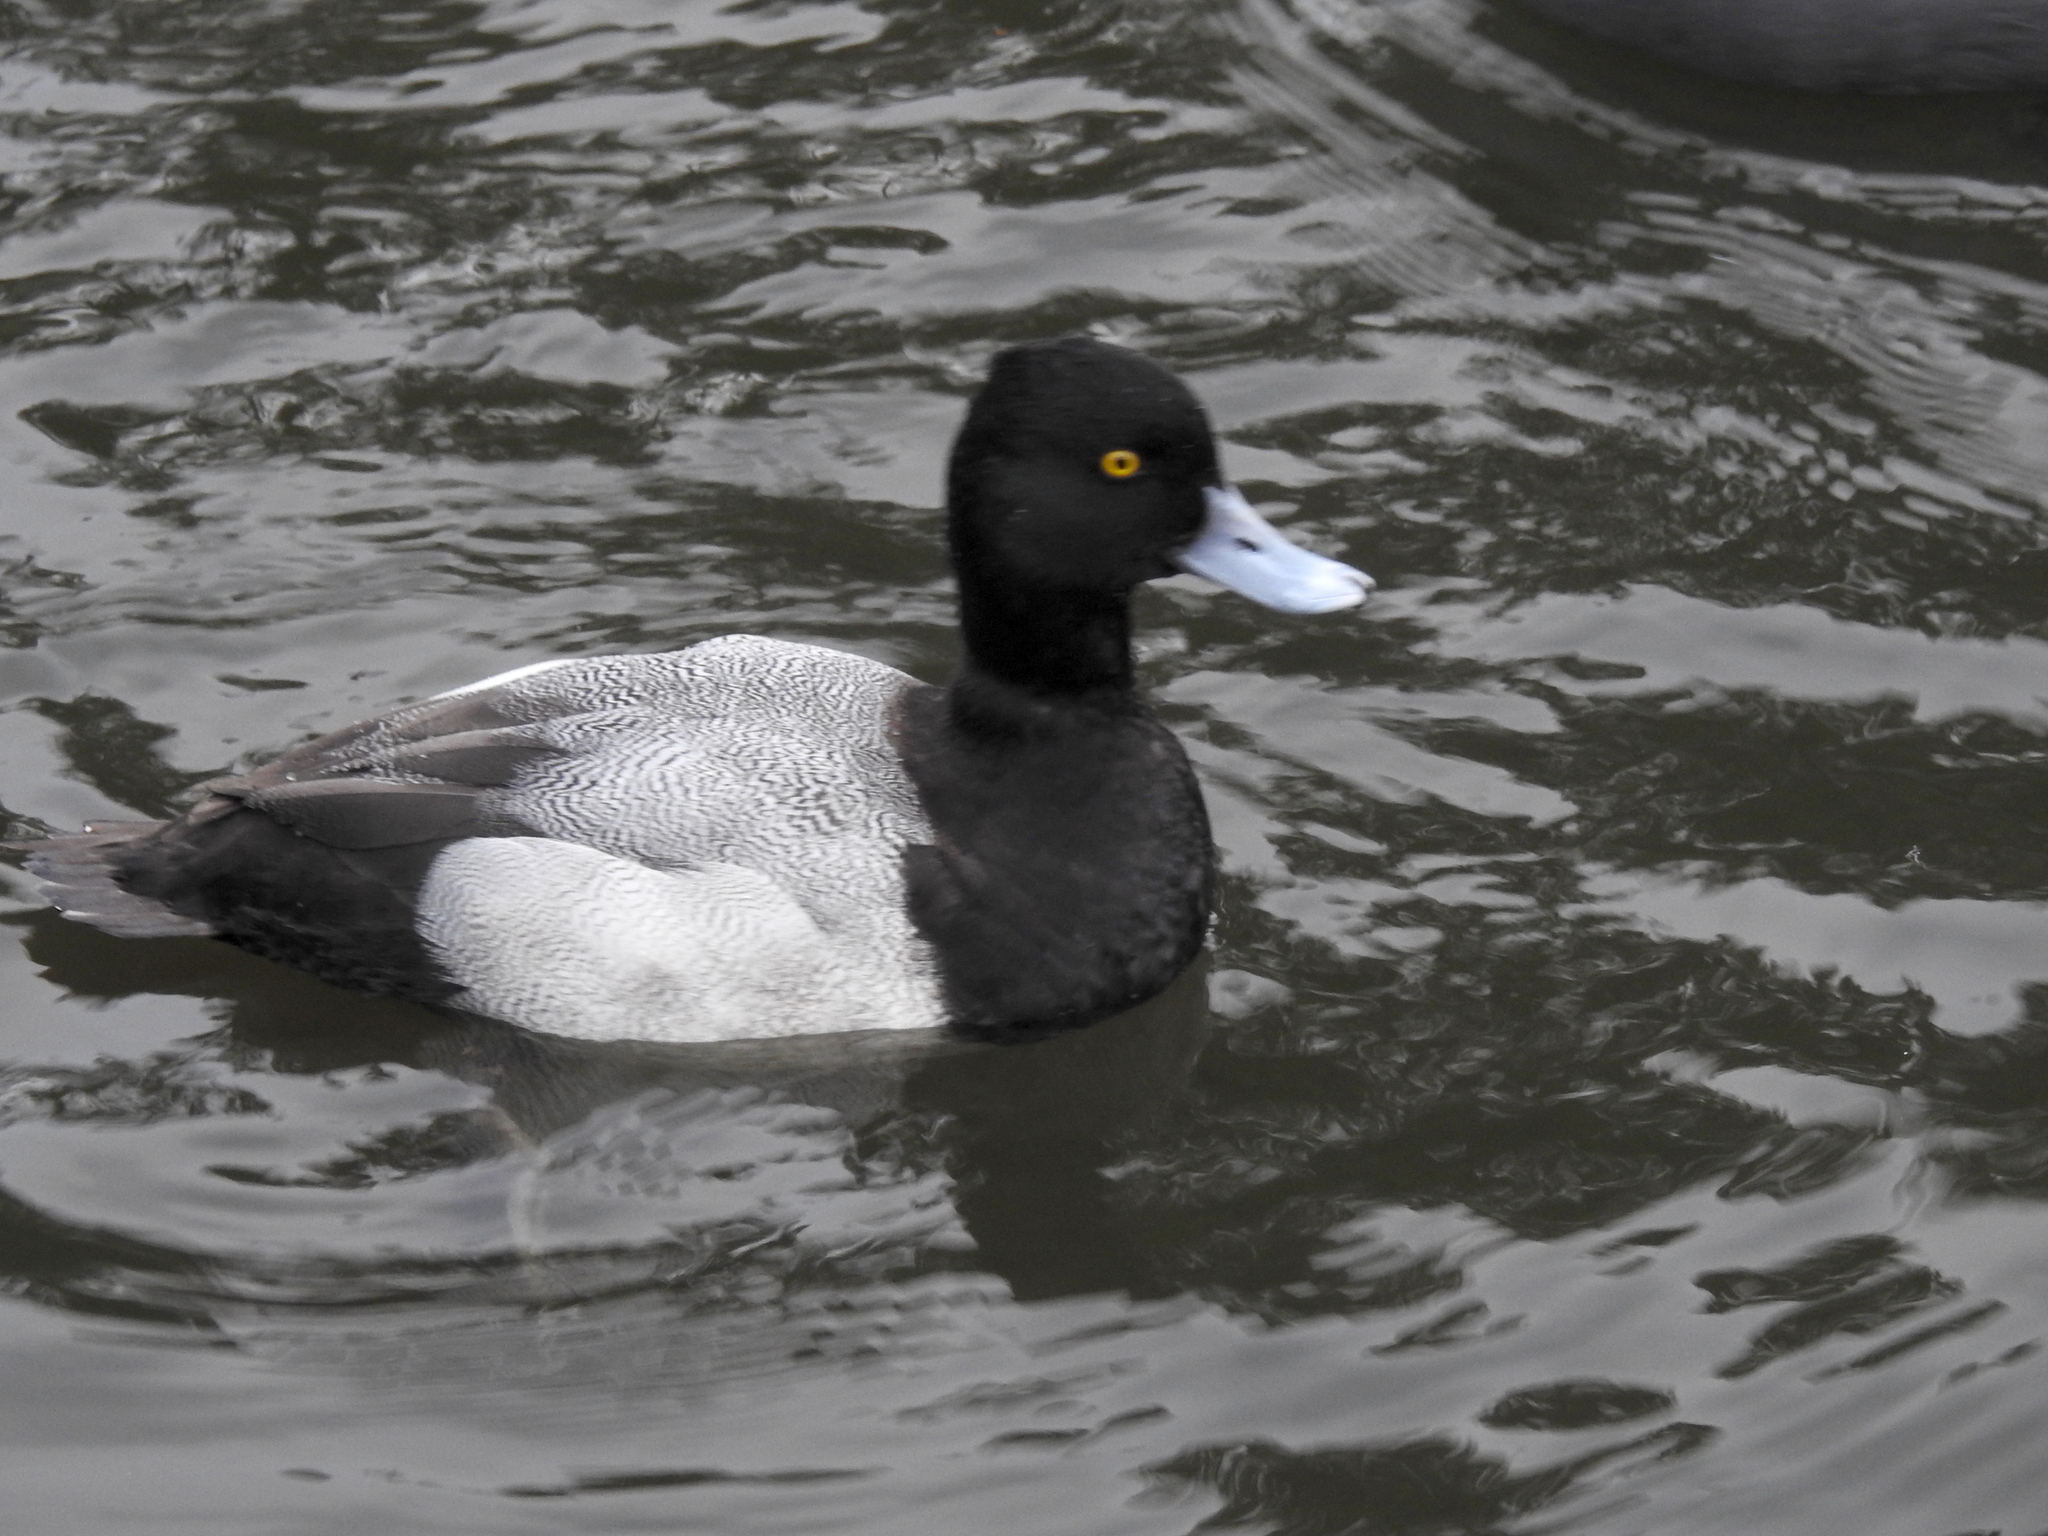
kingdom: Animalia
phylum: Chordata
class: Aves
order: Anseriformes
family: Anatidae
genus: Aythya
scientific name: Aythya affinis
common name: Lesser scaup
